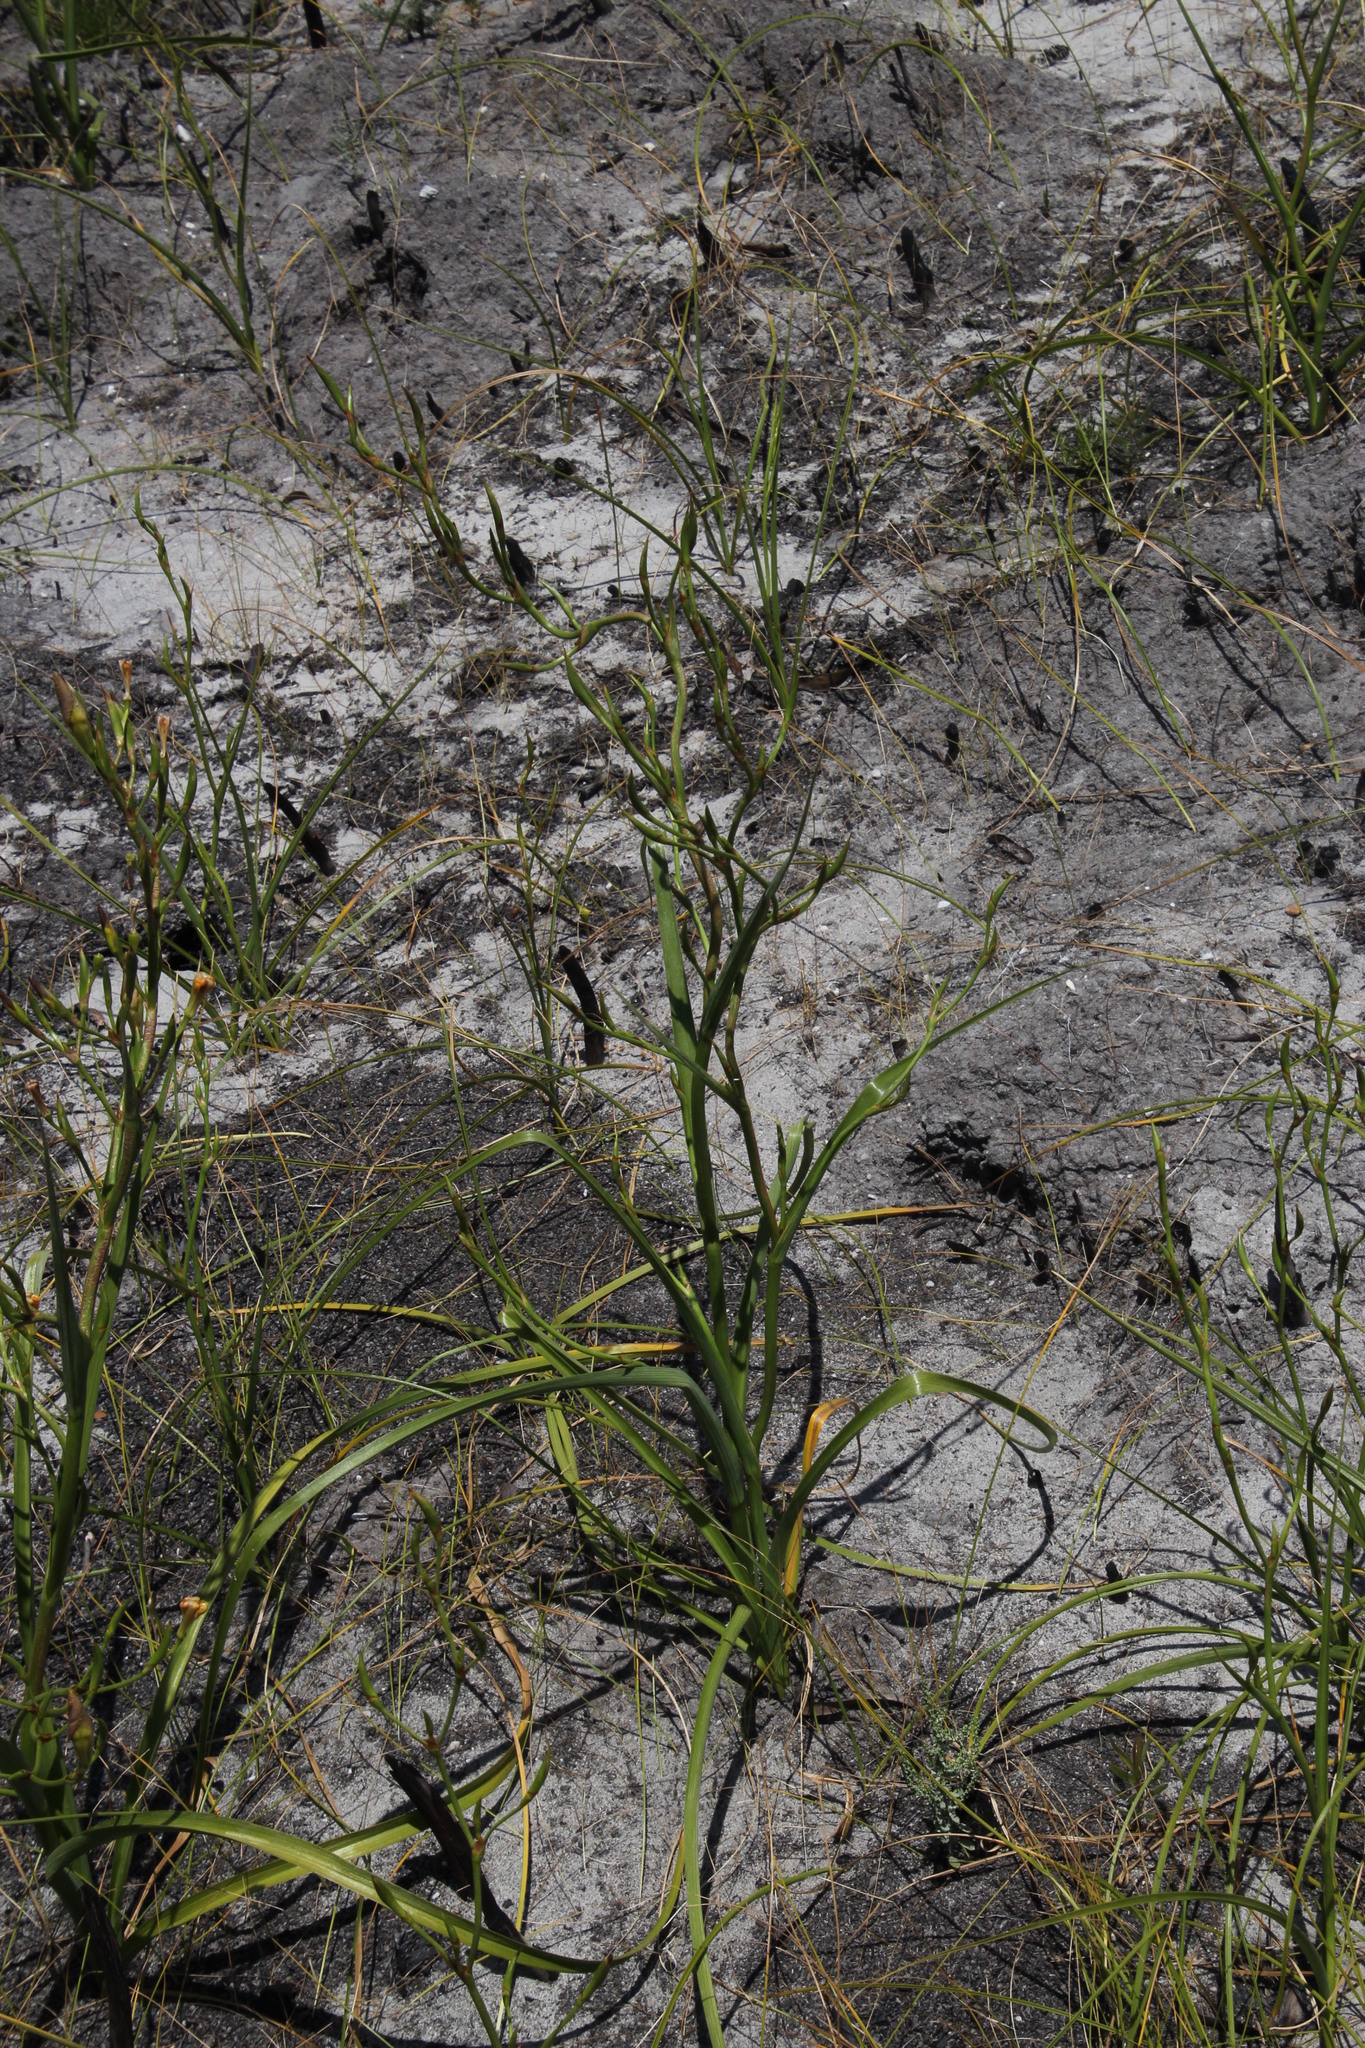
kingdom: Plantae
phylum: Tracheophyta
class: Liliopsida
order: Asparagales
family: Iridaceae
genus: Moraea
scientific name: Moraea ramosissima
